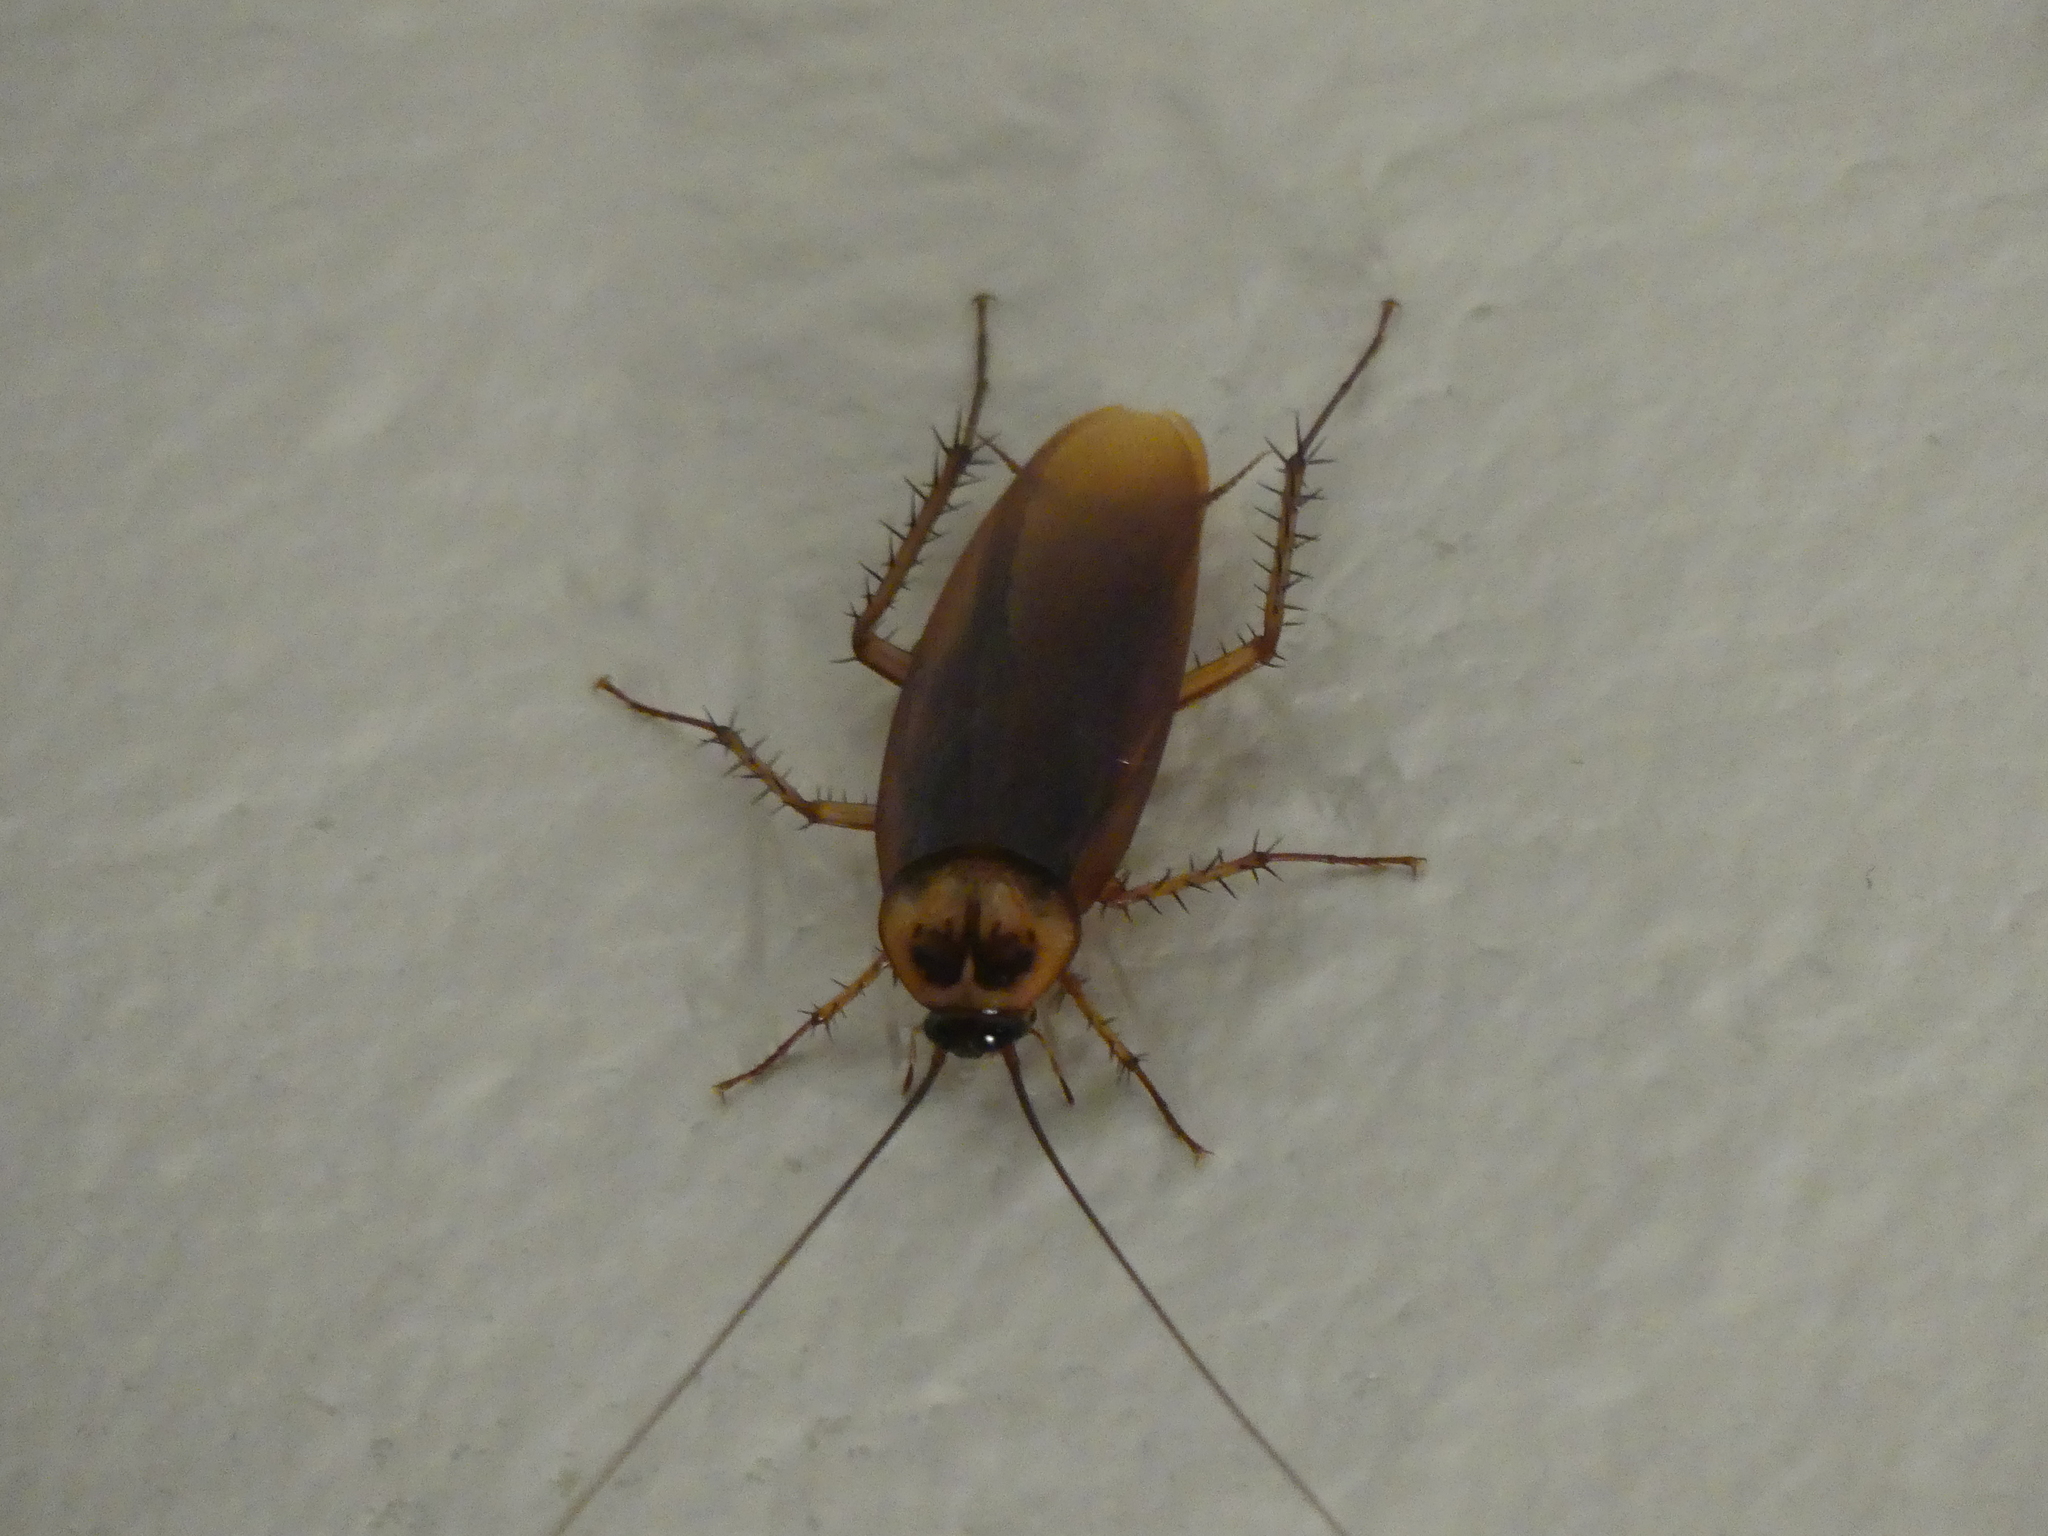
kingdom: Animalia
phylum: Arthropoda
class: Insecta
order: Blattodea
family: Blattidae
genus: Periplaneta
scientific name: Periplaneta americana
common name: American cockroach
